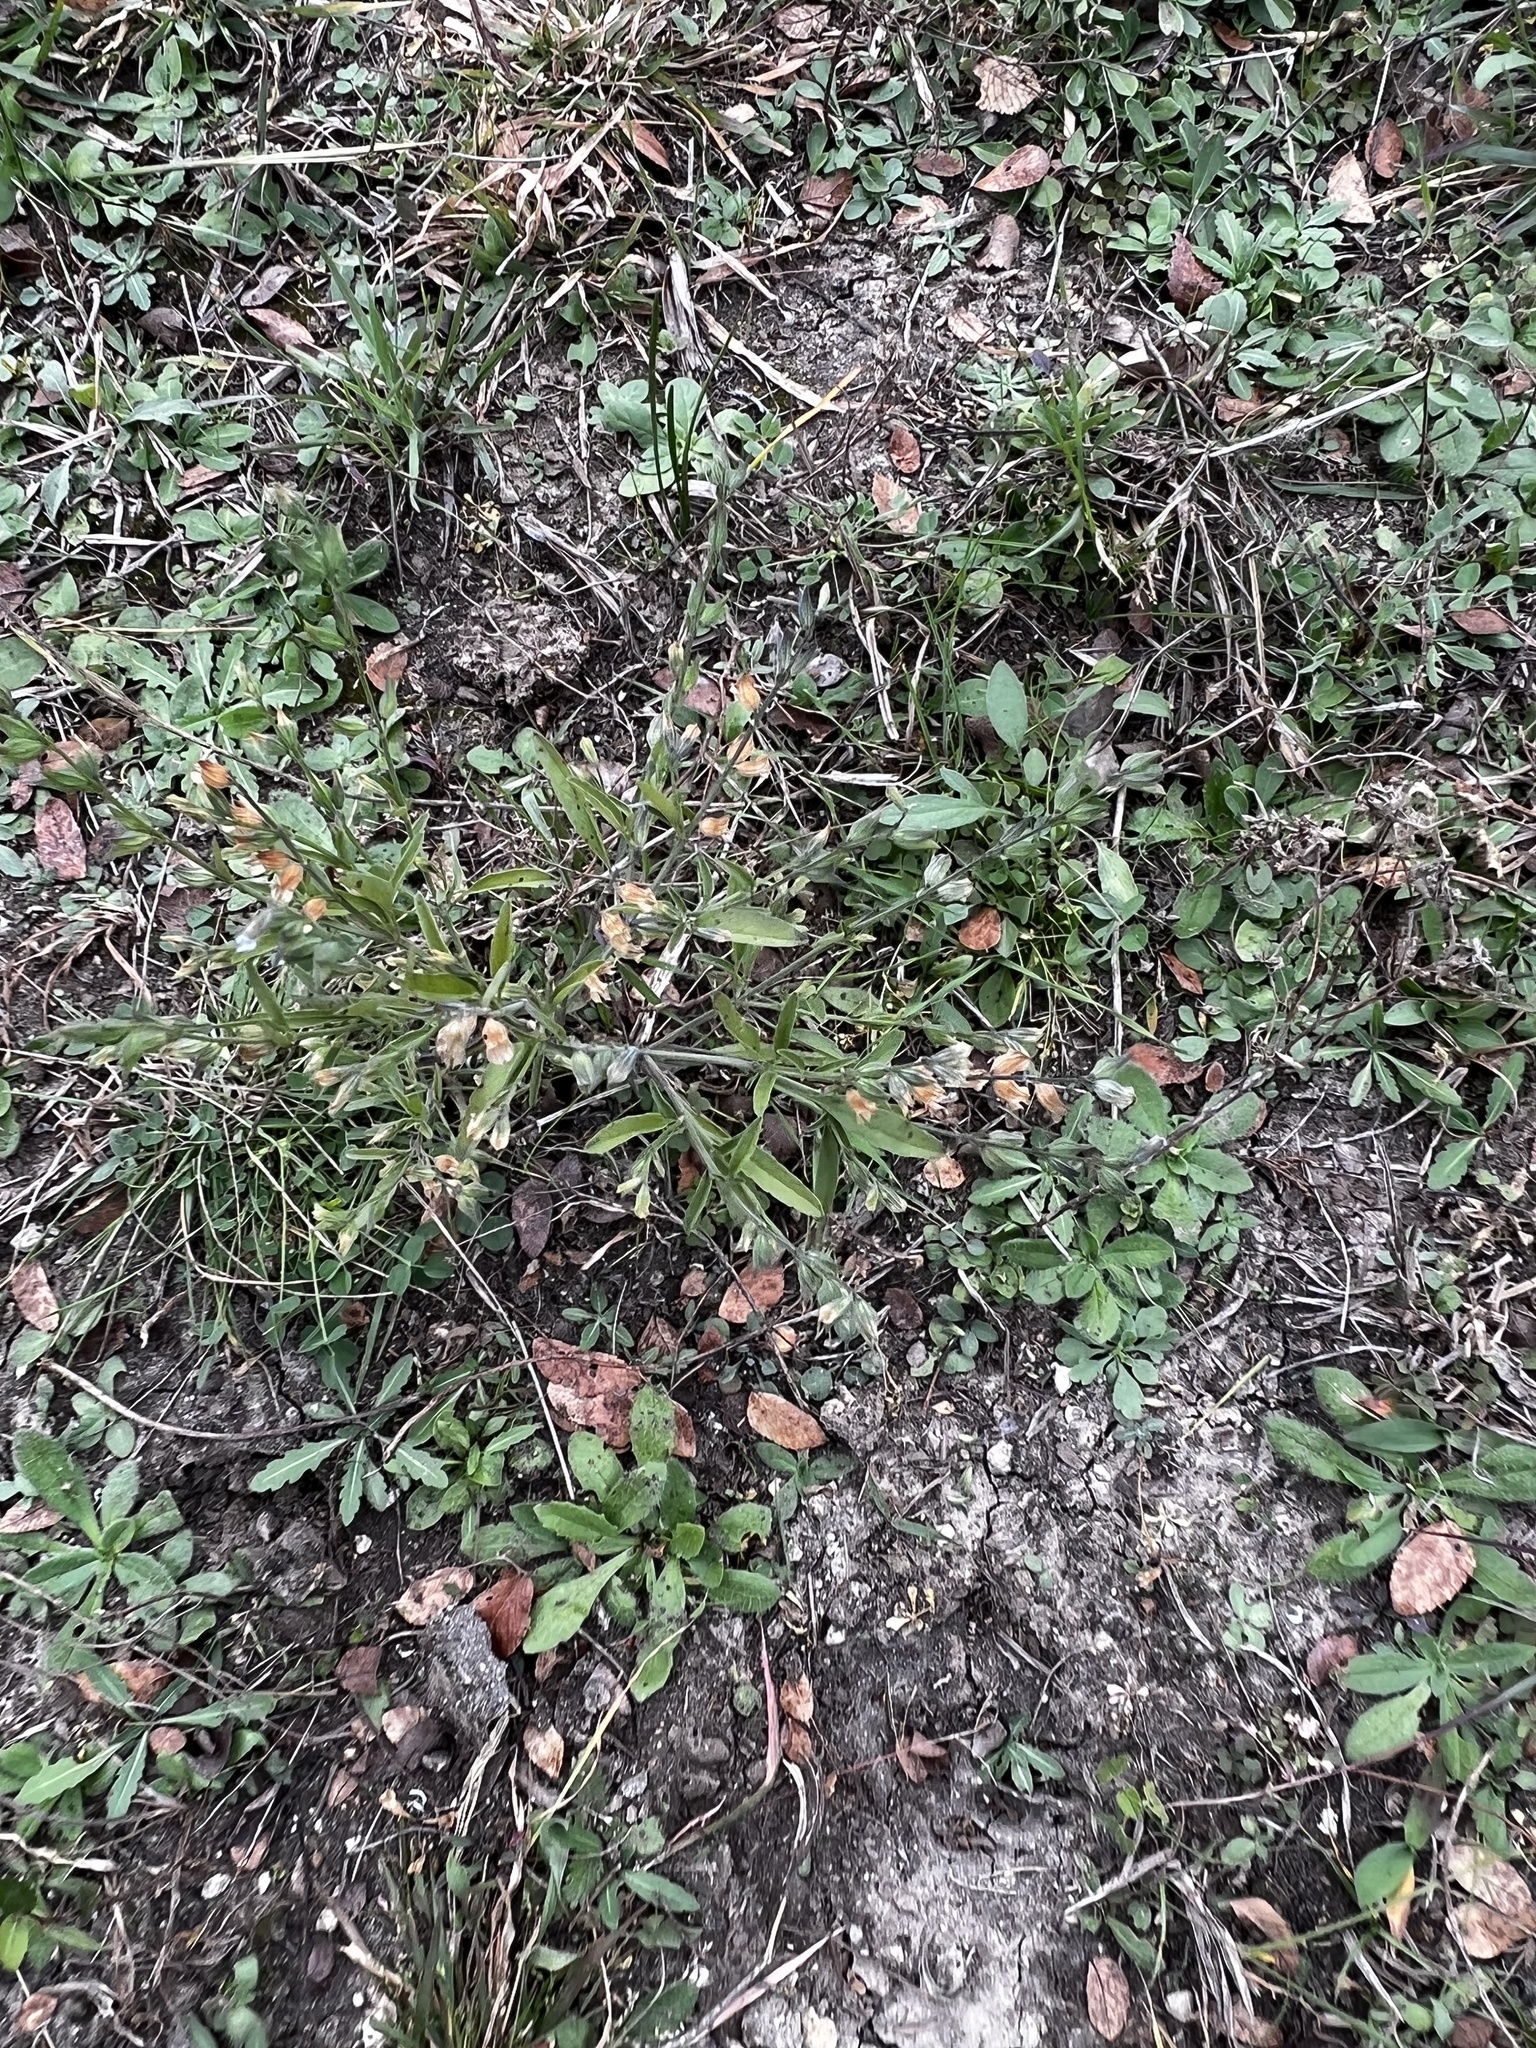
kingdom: Plantae
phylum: Tracheophyta
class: Magnoliopsida
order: Lamiales
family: Lamiaceae
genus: Salvia
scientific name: Salvia reflexa
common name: Mintweed
